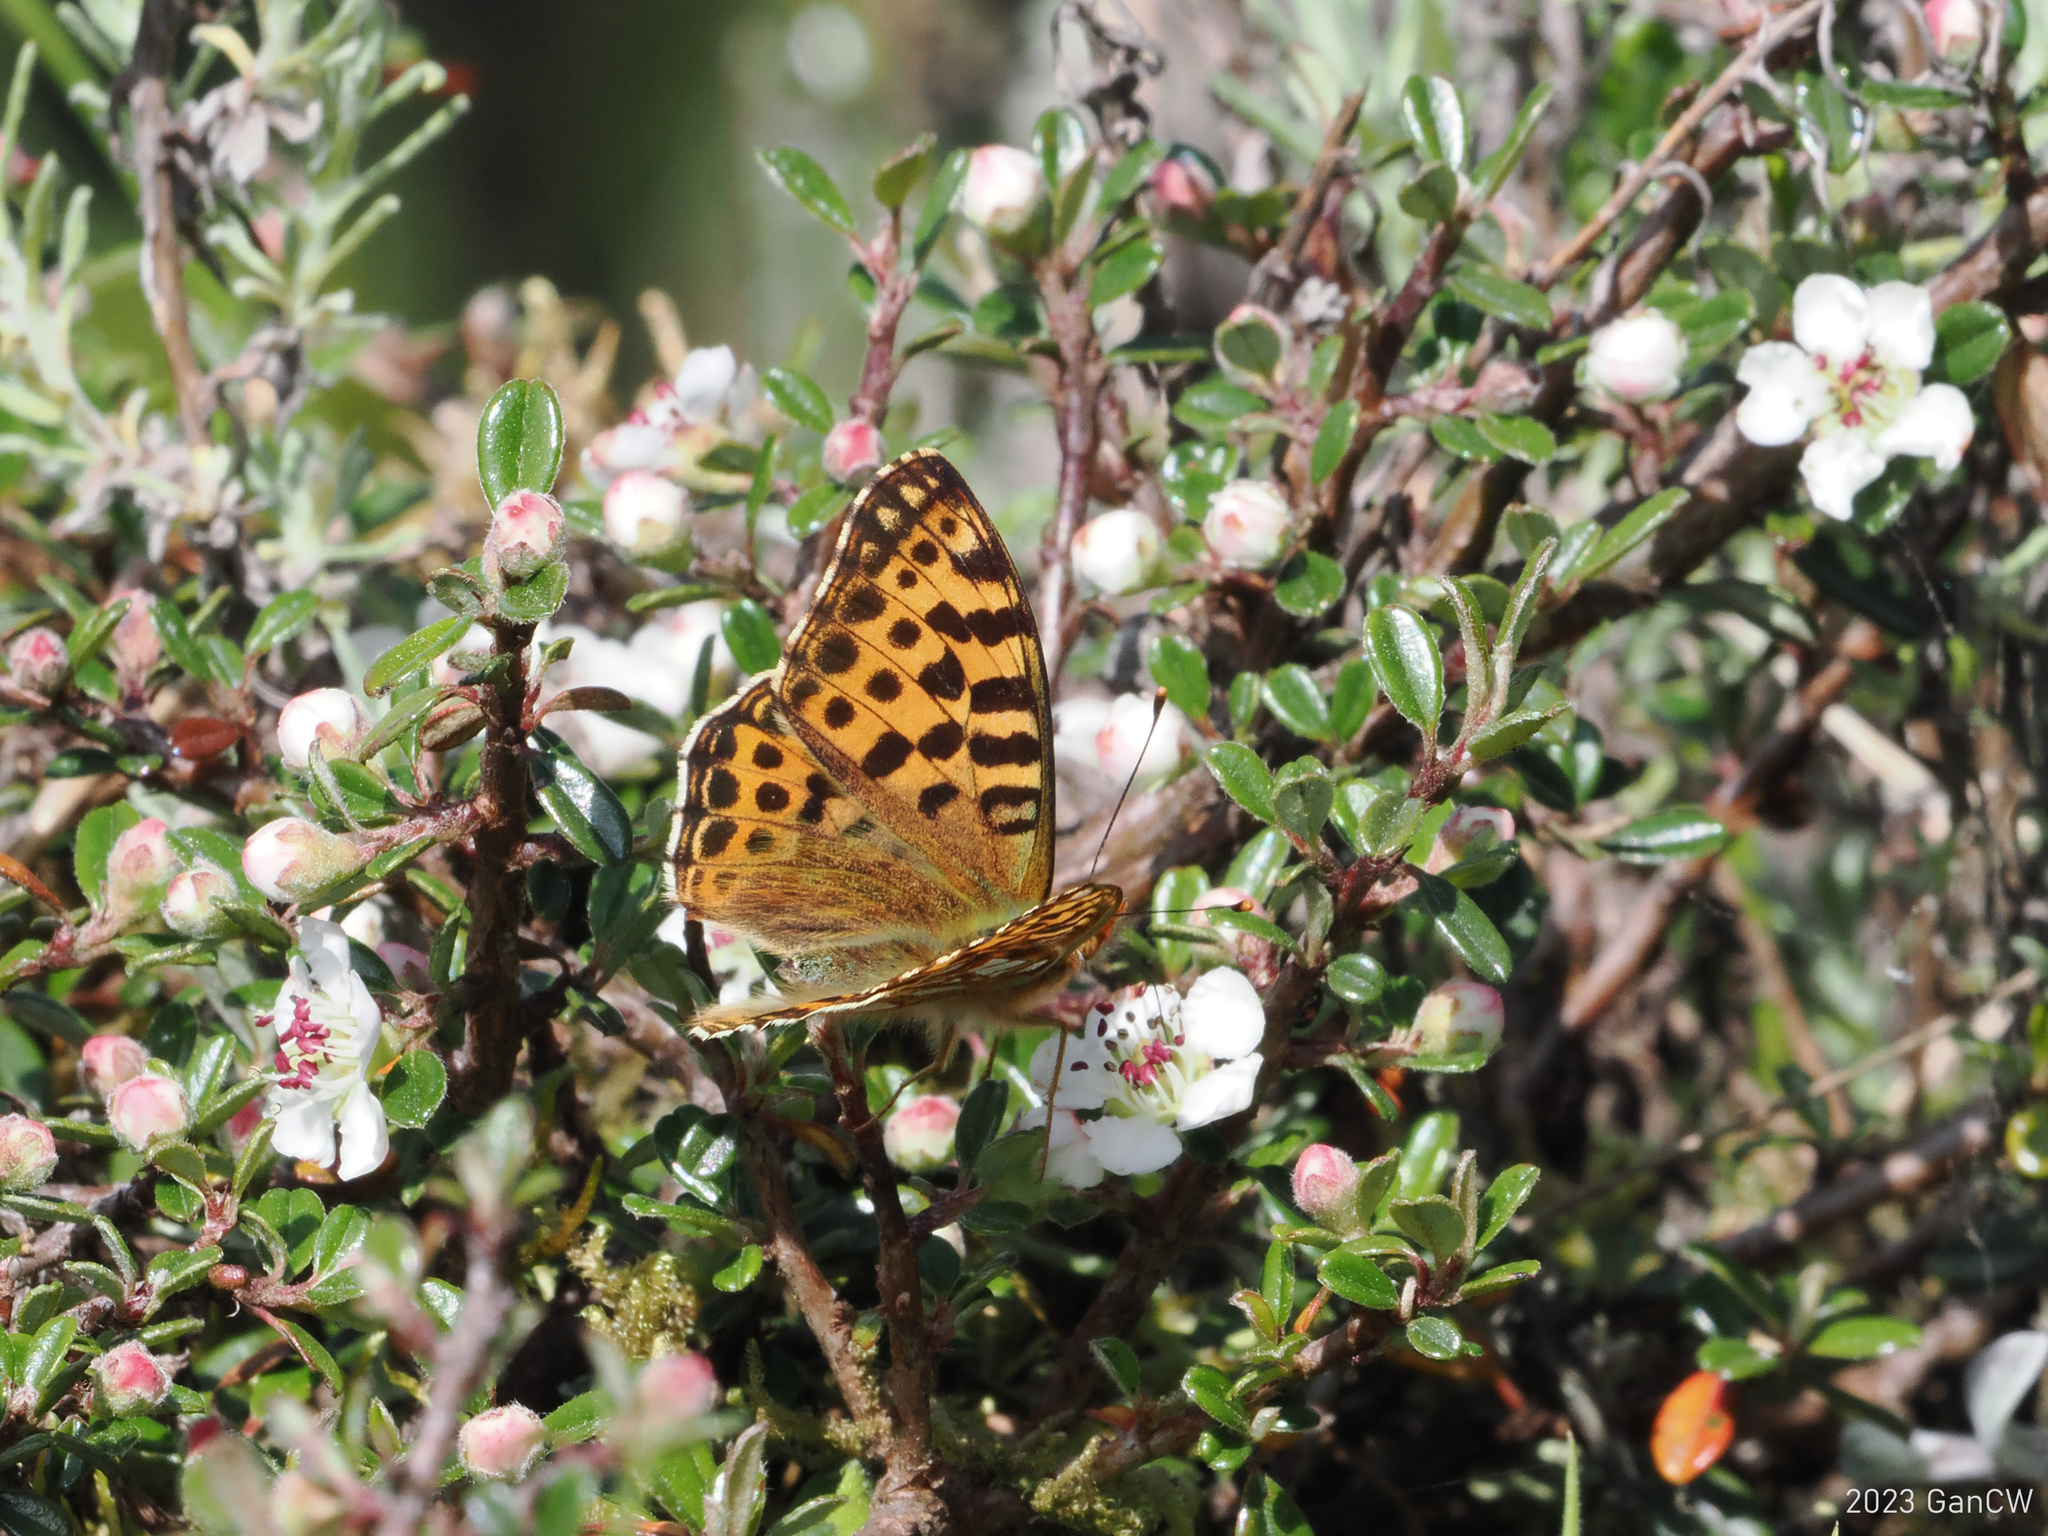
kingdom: Animalia
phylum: Arthropoda
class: Insecta
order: Lepidoptera
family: Nymphalidae
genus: Issoria
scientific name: Issoria
